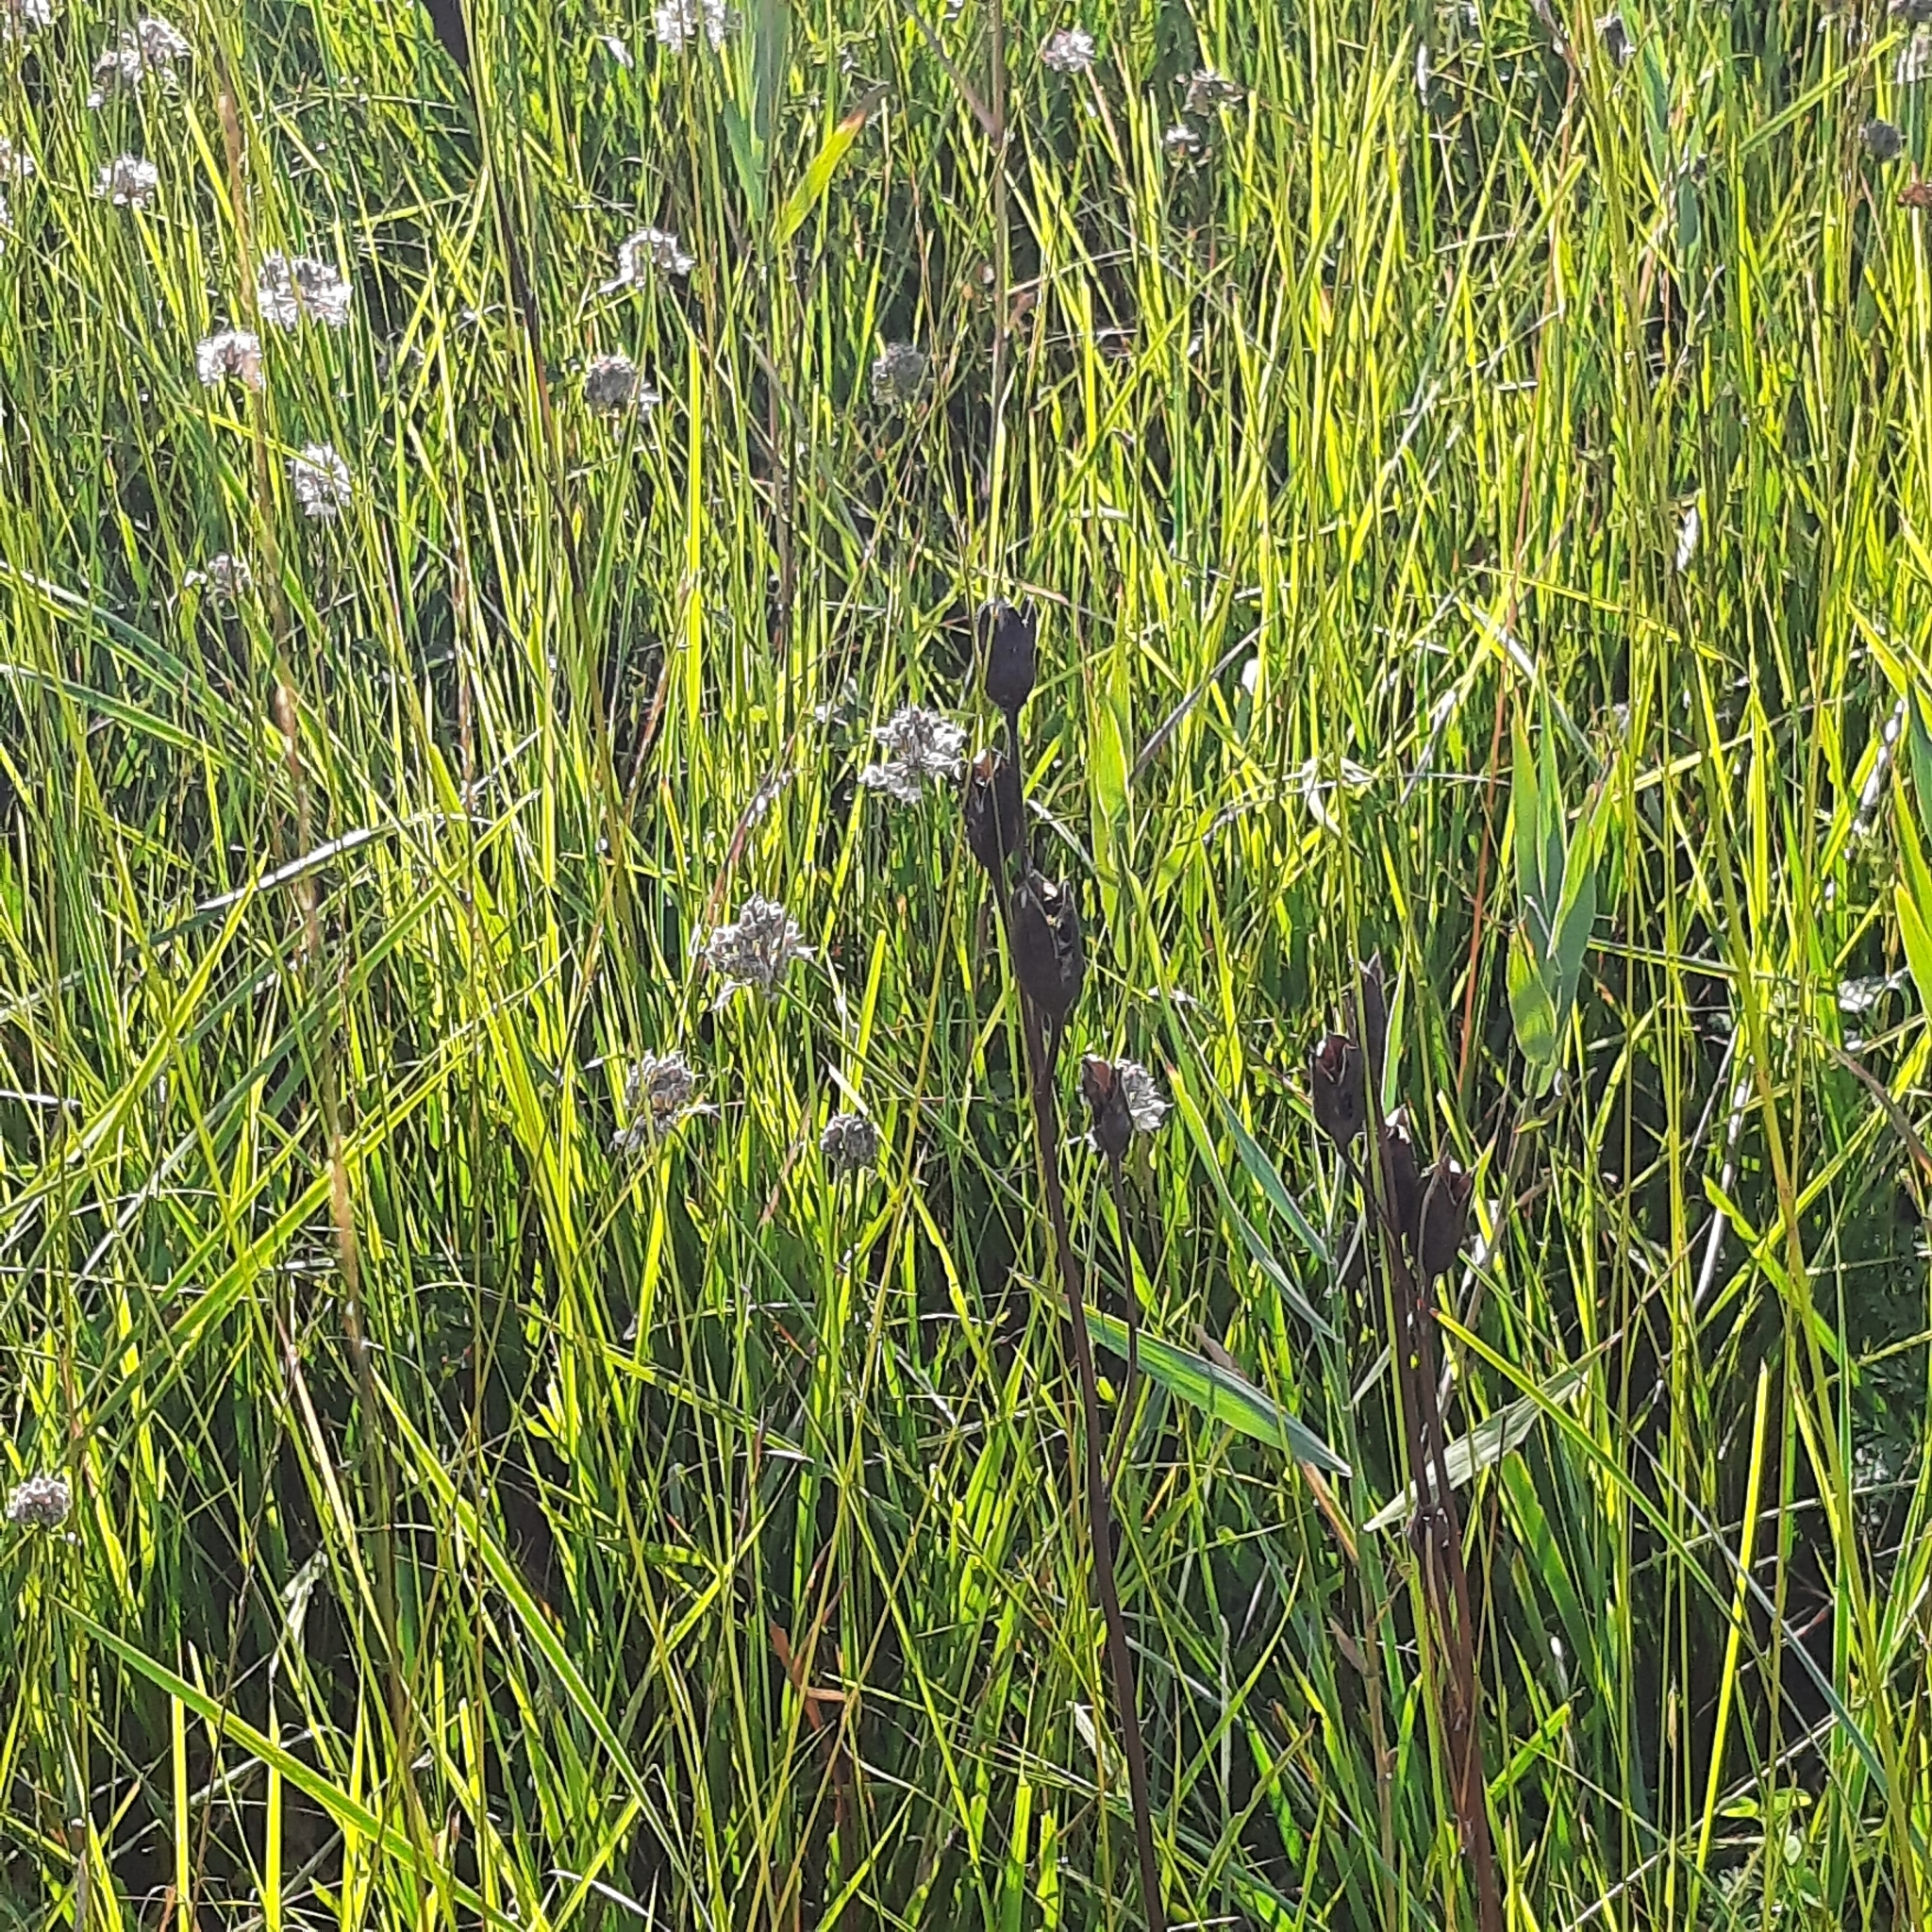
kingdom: Plantae
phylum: Tracheophyta
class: Liliopsida
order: Asparagales
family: Iridaceae
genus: Iris
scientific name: Iris sibirica
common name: Siberian iris
